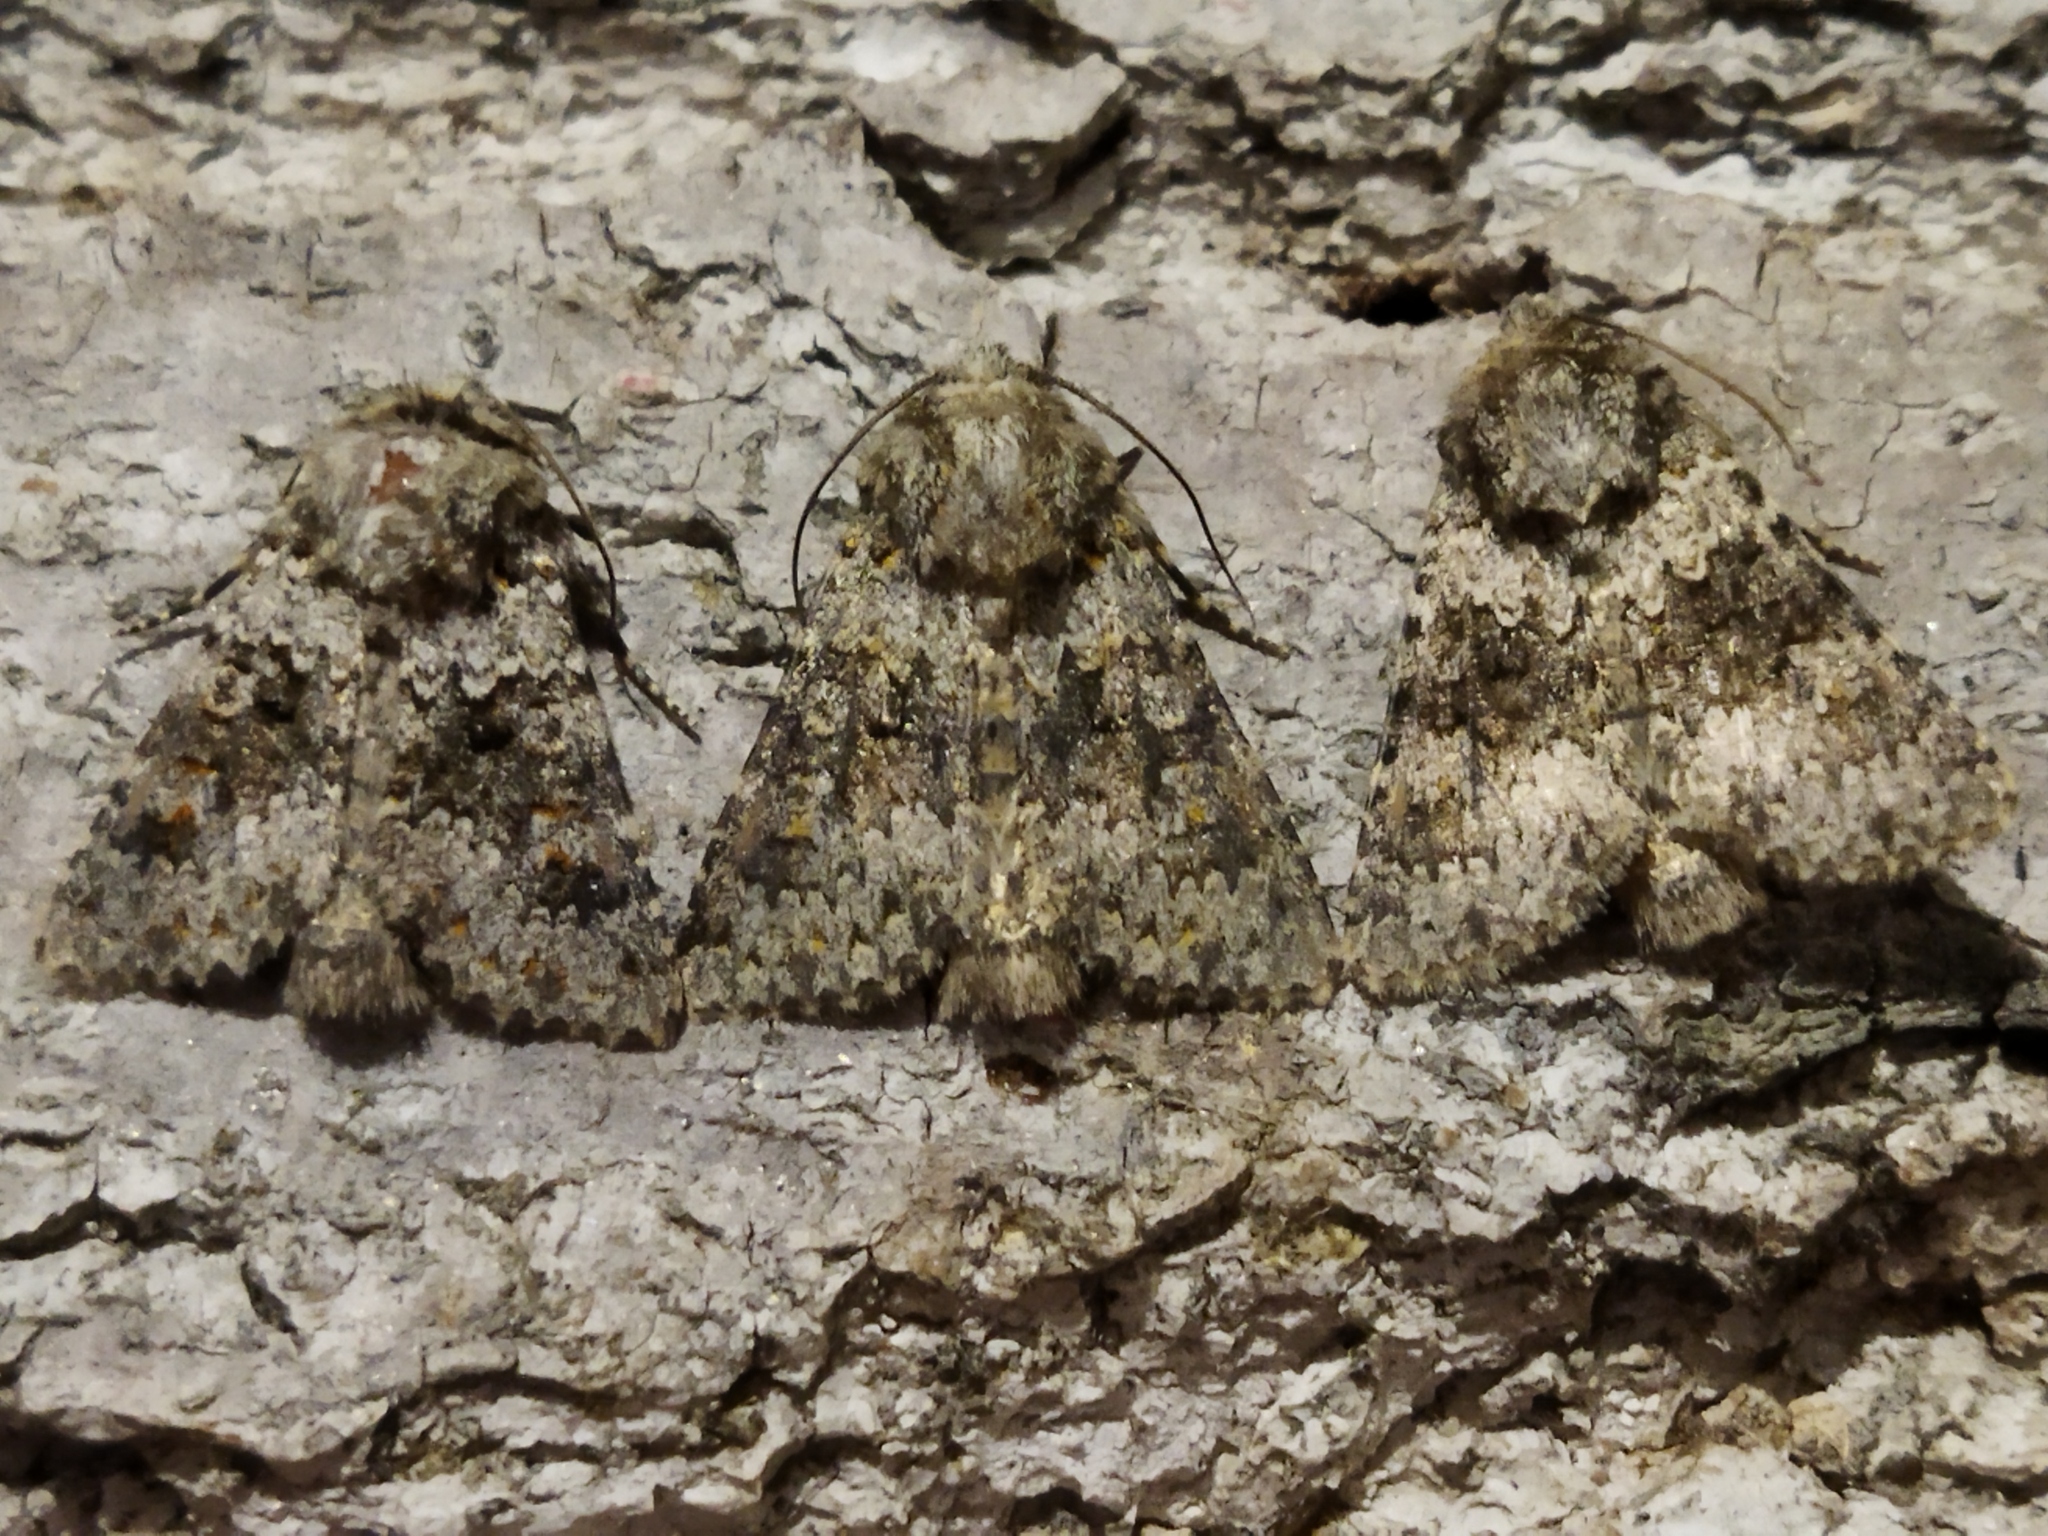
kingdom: Animalia
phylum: Arthropoda
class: Insecta
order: Lepidoptera
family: Noctuidae
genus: Hecatera
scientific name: Hecatera dysodea
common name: Small ranunculus
